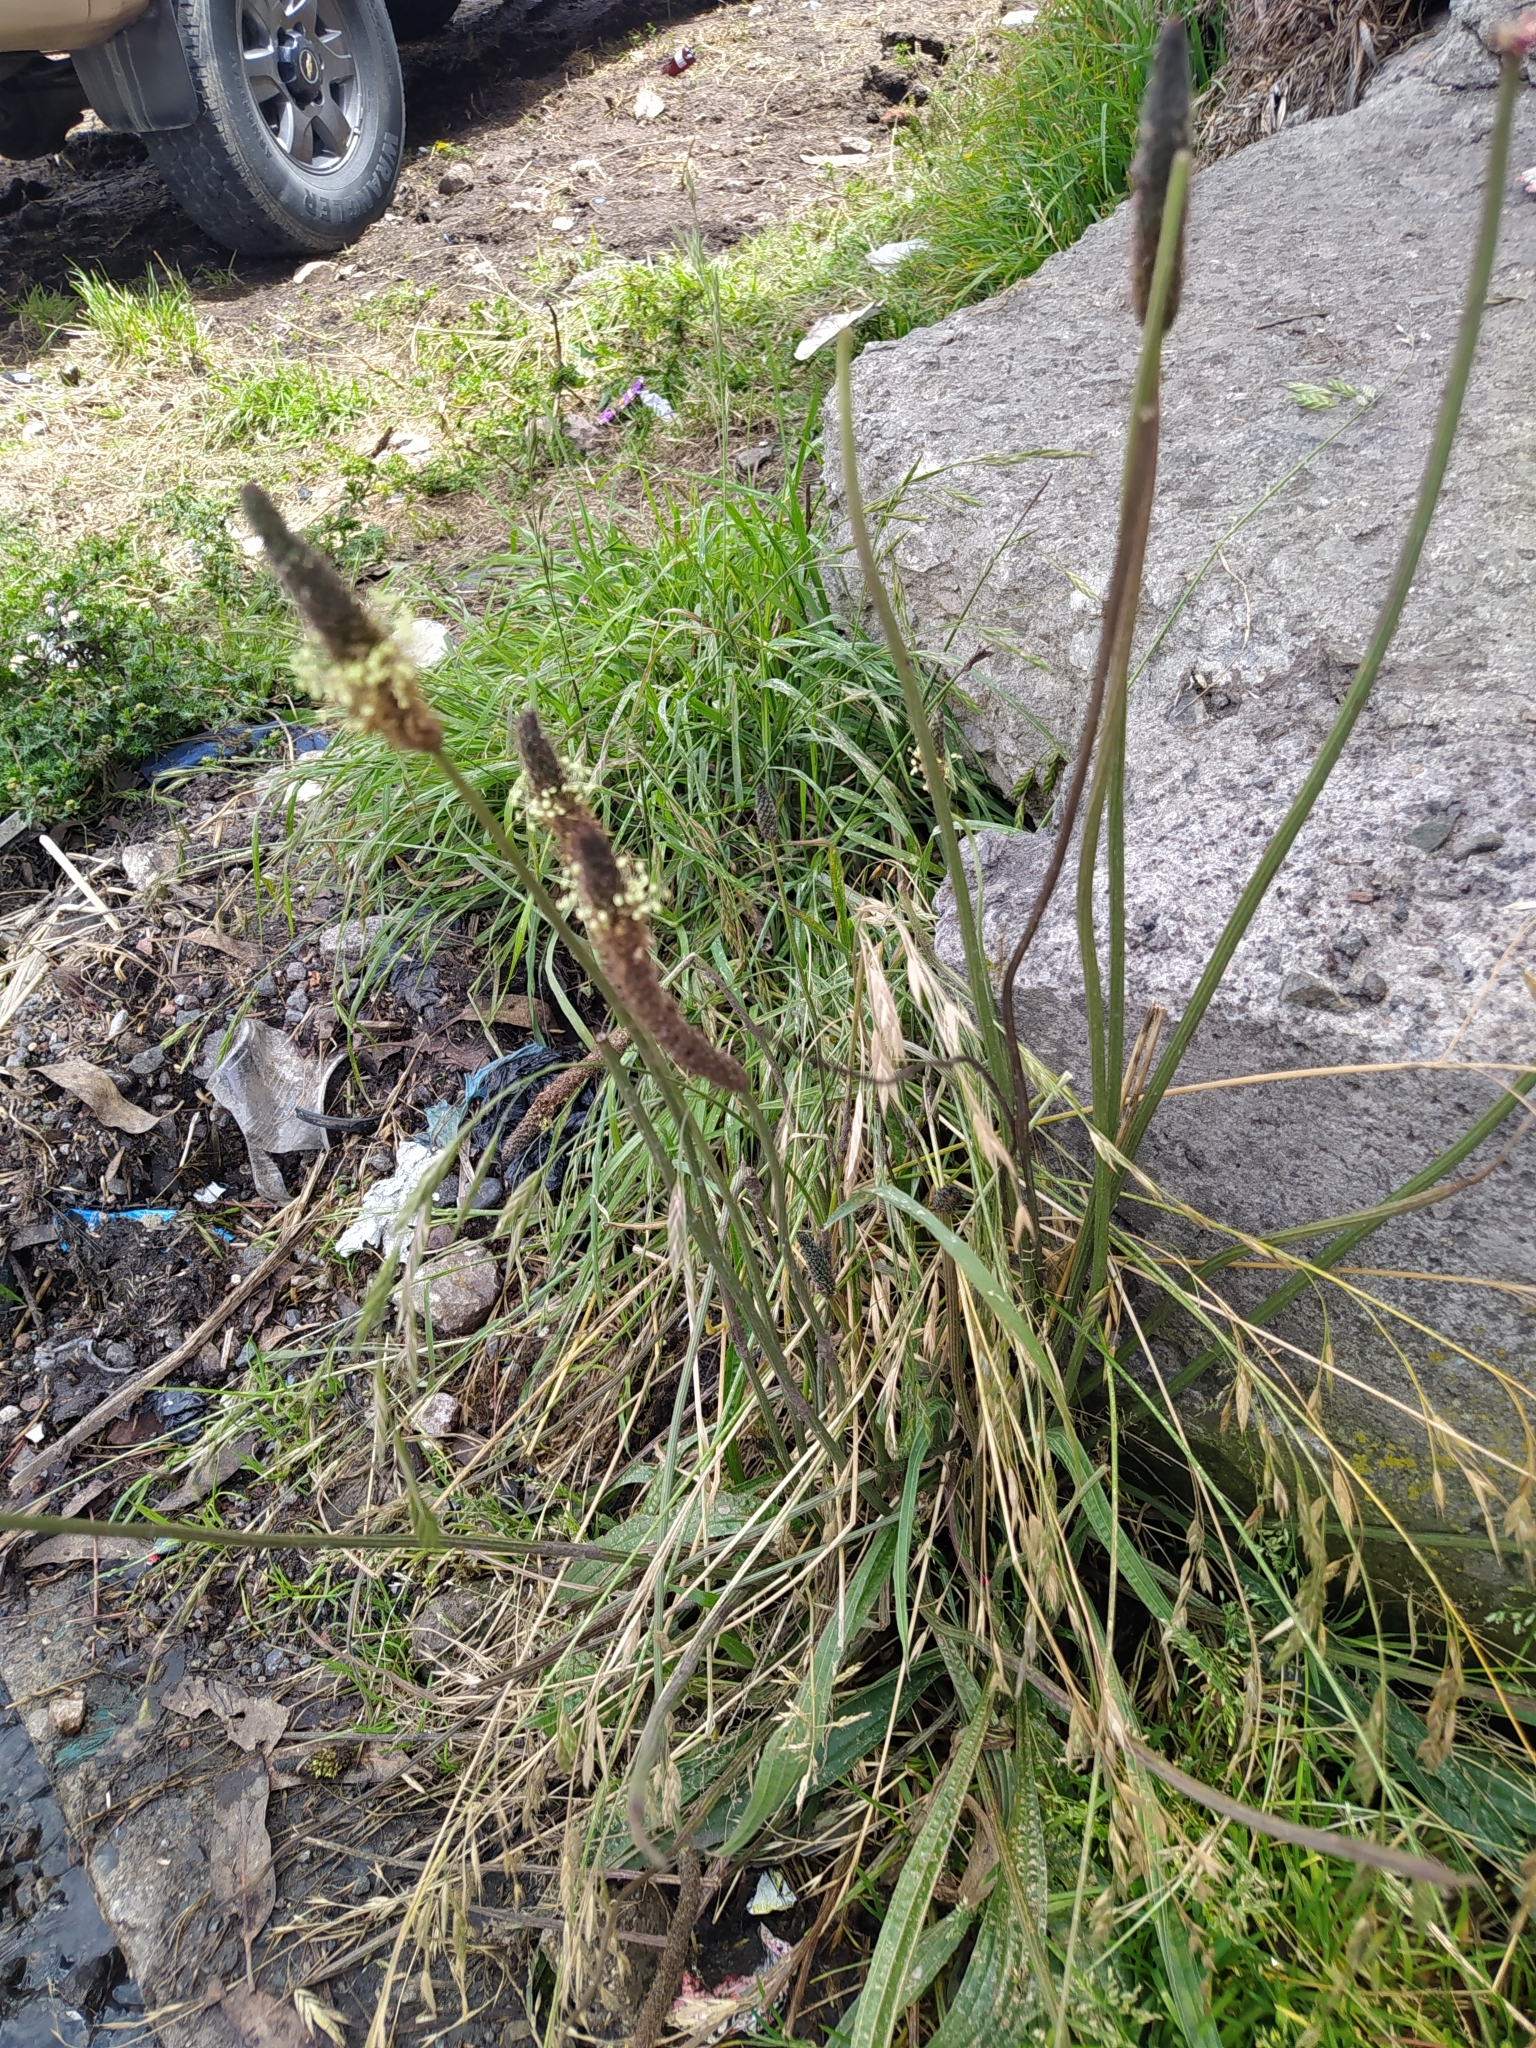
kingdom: Plantae
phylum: Tracheophyta
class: Magnoliopsida
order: Lamiales
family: Plantaginaceae
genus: Plantago
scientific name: Plantago lanceolata
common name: Ribwort plantain
